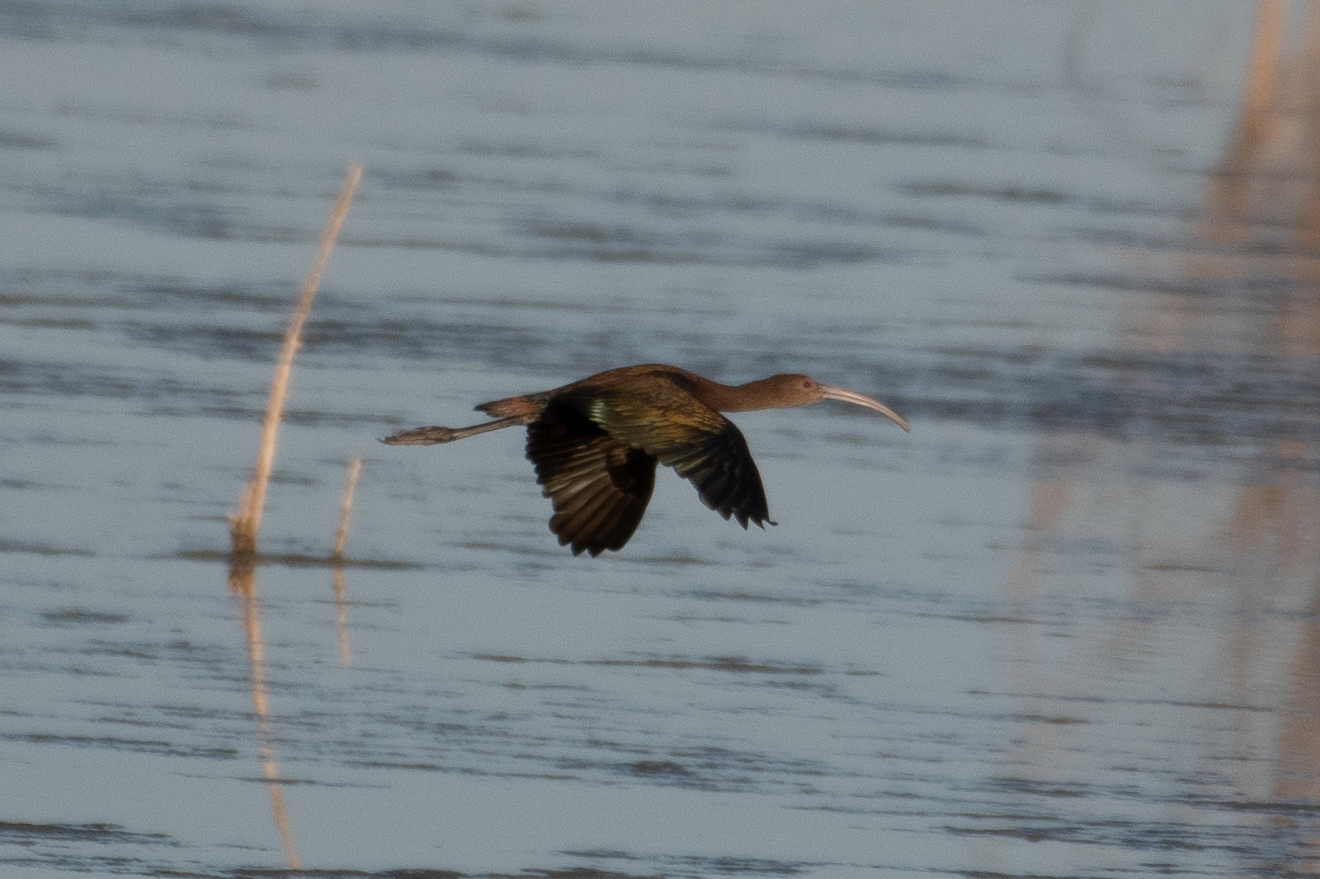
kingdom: Animalia
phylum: Chordata
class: Aves
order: Pelecaniformes
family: Threskiornithidae
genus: Plegadis
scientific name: Plegadis chihi
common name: White-faced ibis
